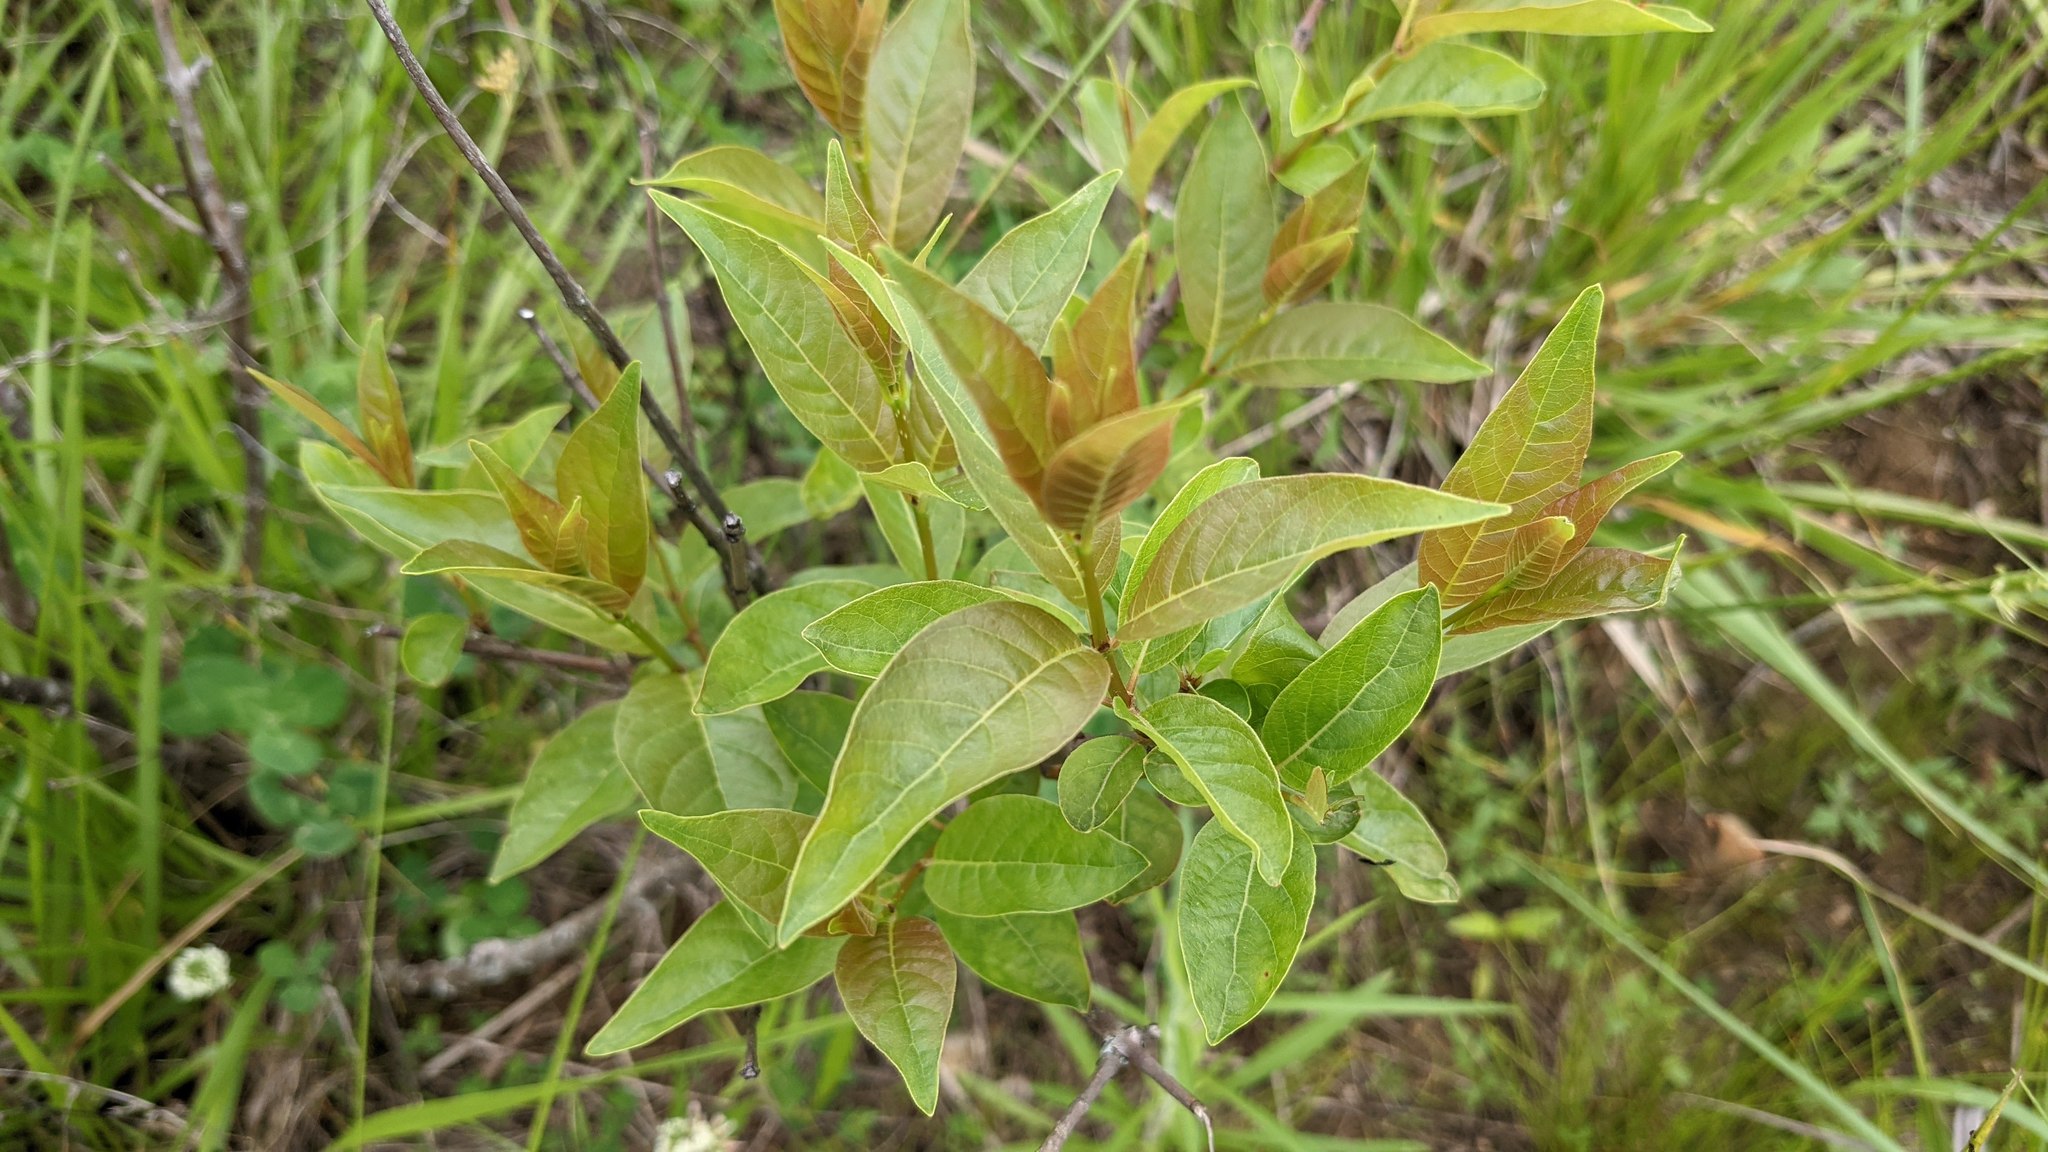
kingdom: Plantae
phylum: Tracheophyta
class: Magnoliopsida
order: Gentianales
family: Rubiaceae
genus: Cephalanthus
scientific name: Cephalanthus occidentalis
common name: Button-willow
